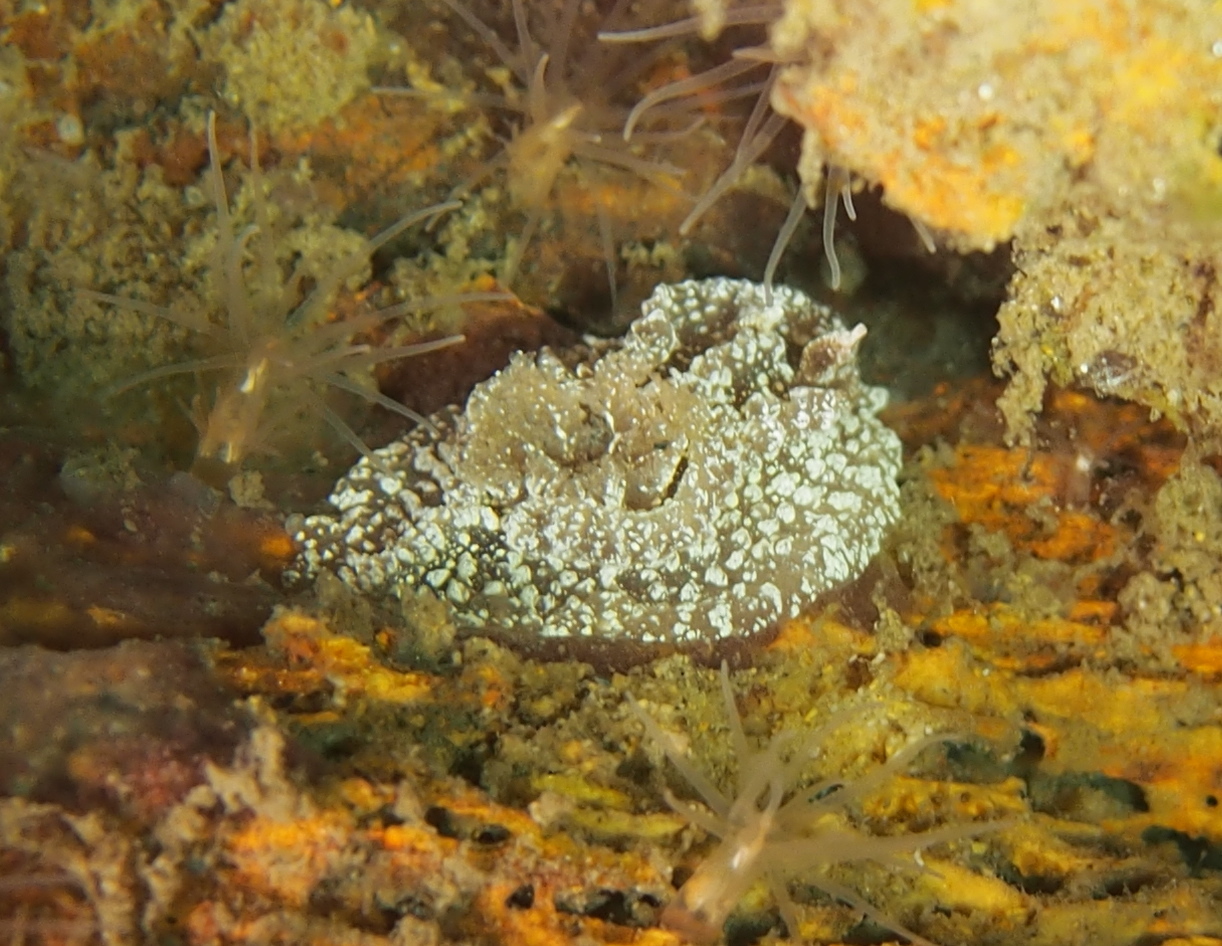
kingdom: Animalia
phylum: Mollusca
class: Gastropoda
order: Nudibranchia
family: Goniodorididae
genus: Pelagella
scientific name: Pelagella castanea
